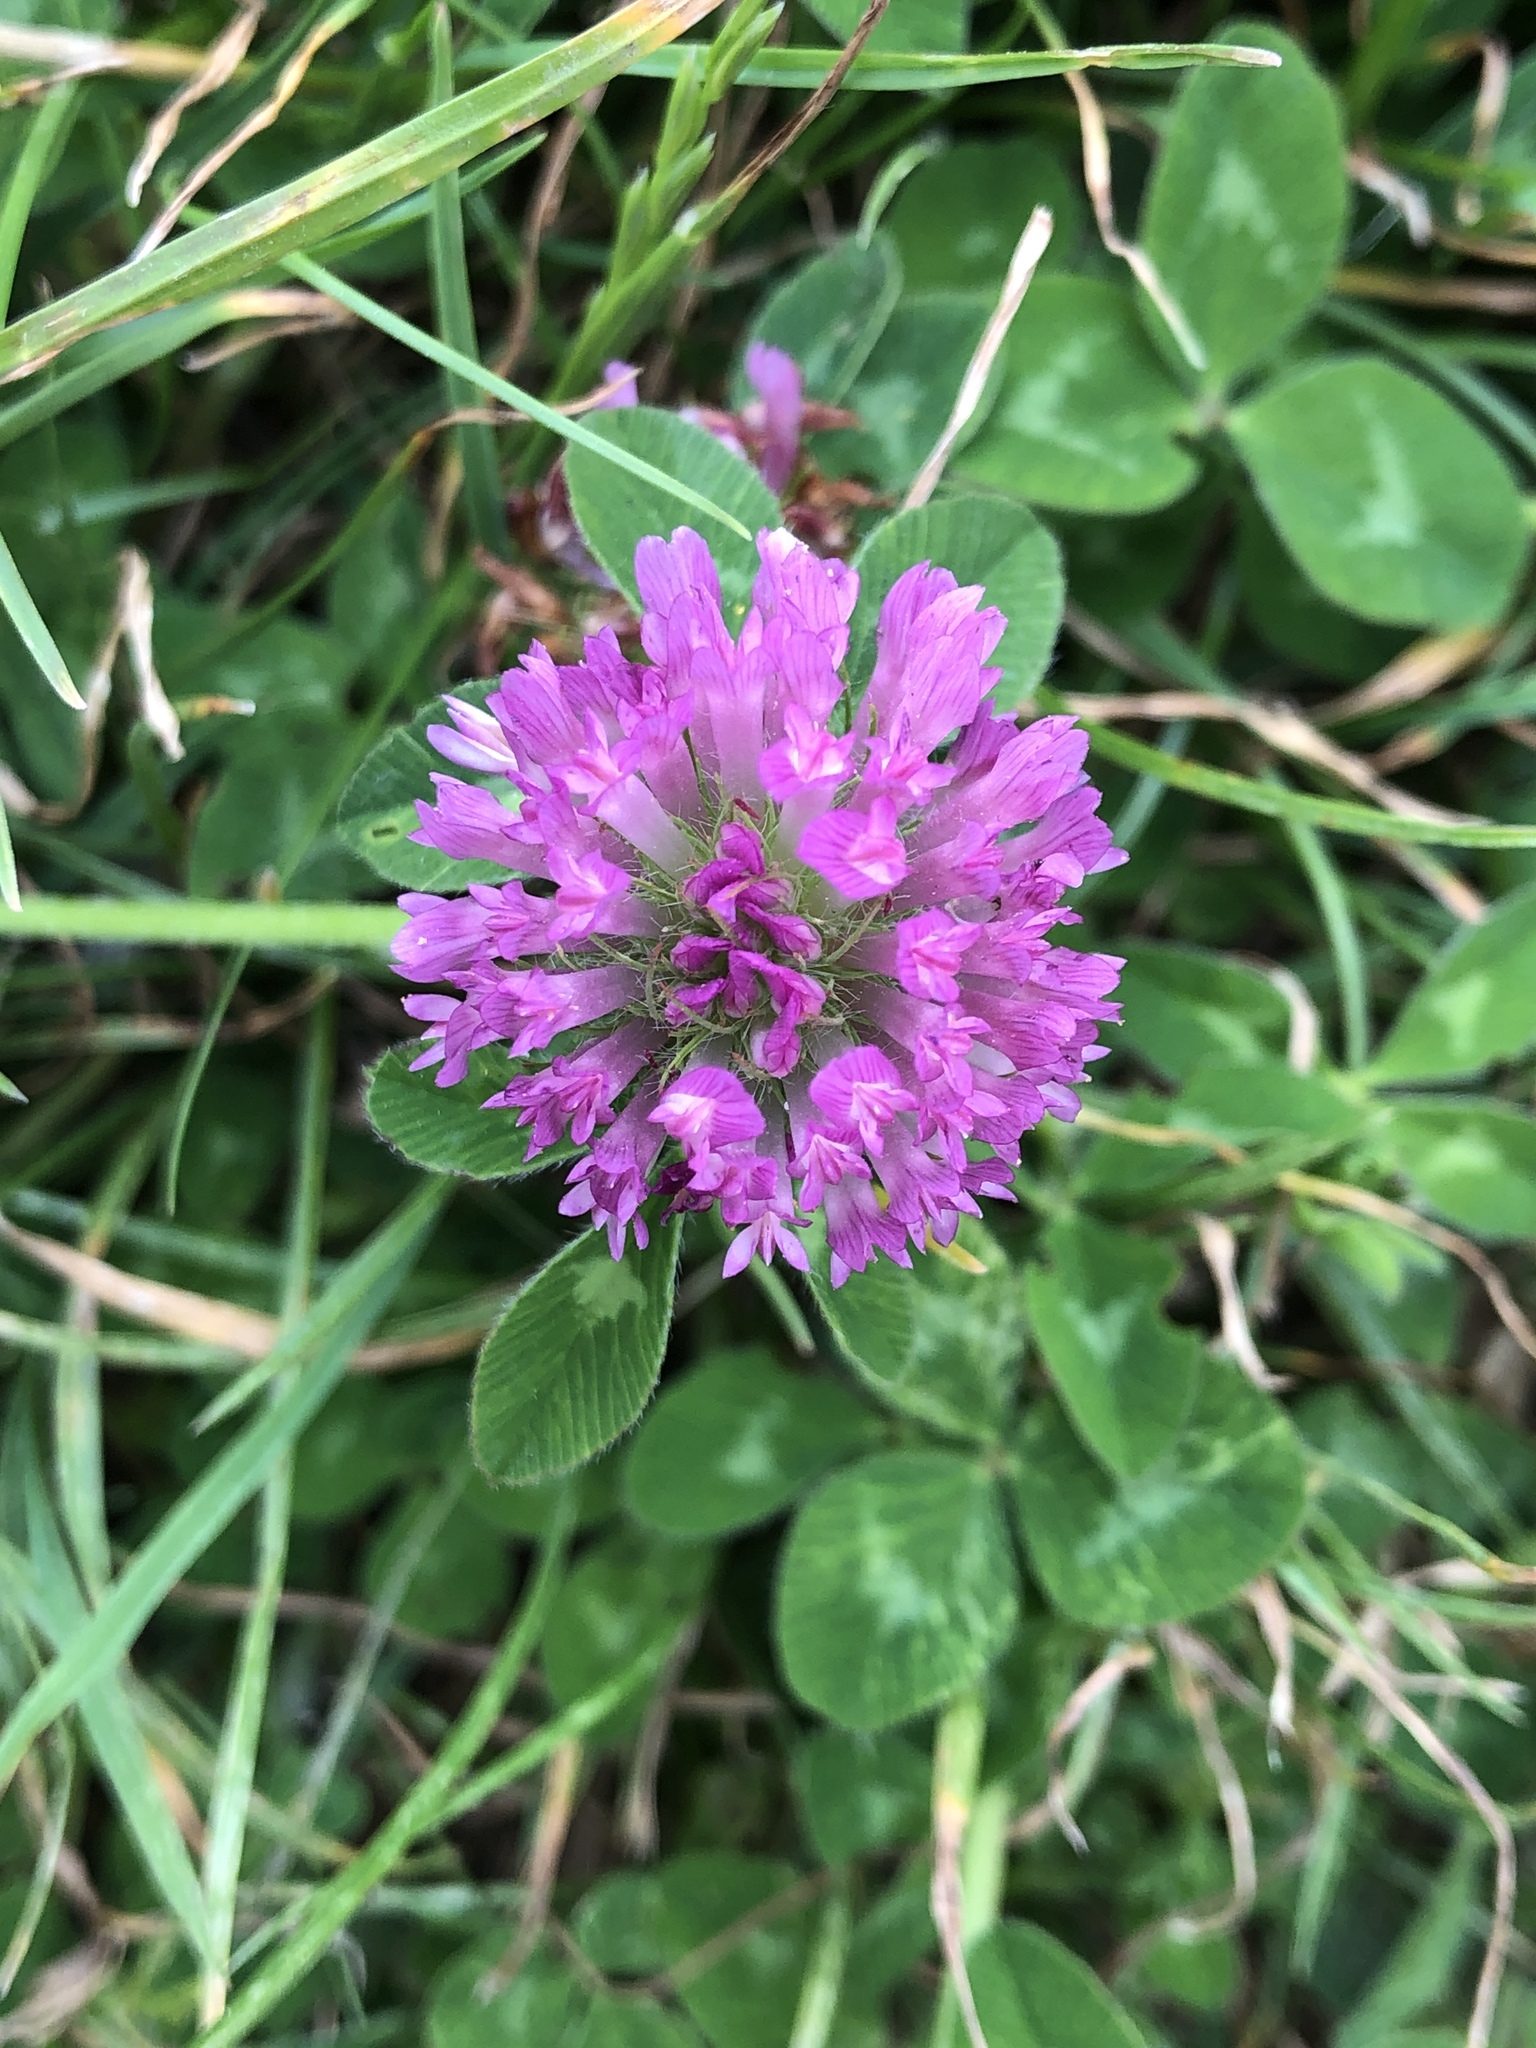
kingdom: Plantae
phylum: Tracheophyta
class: Magnoliopsida
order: Fabales
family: Fabaceae
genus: Trifolium
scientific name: Trifolium pratense
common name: Red clover
